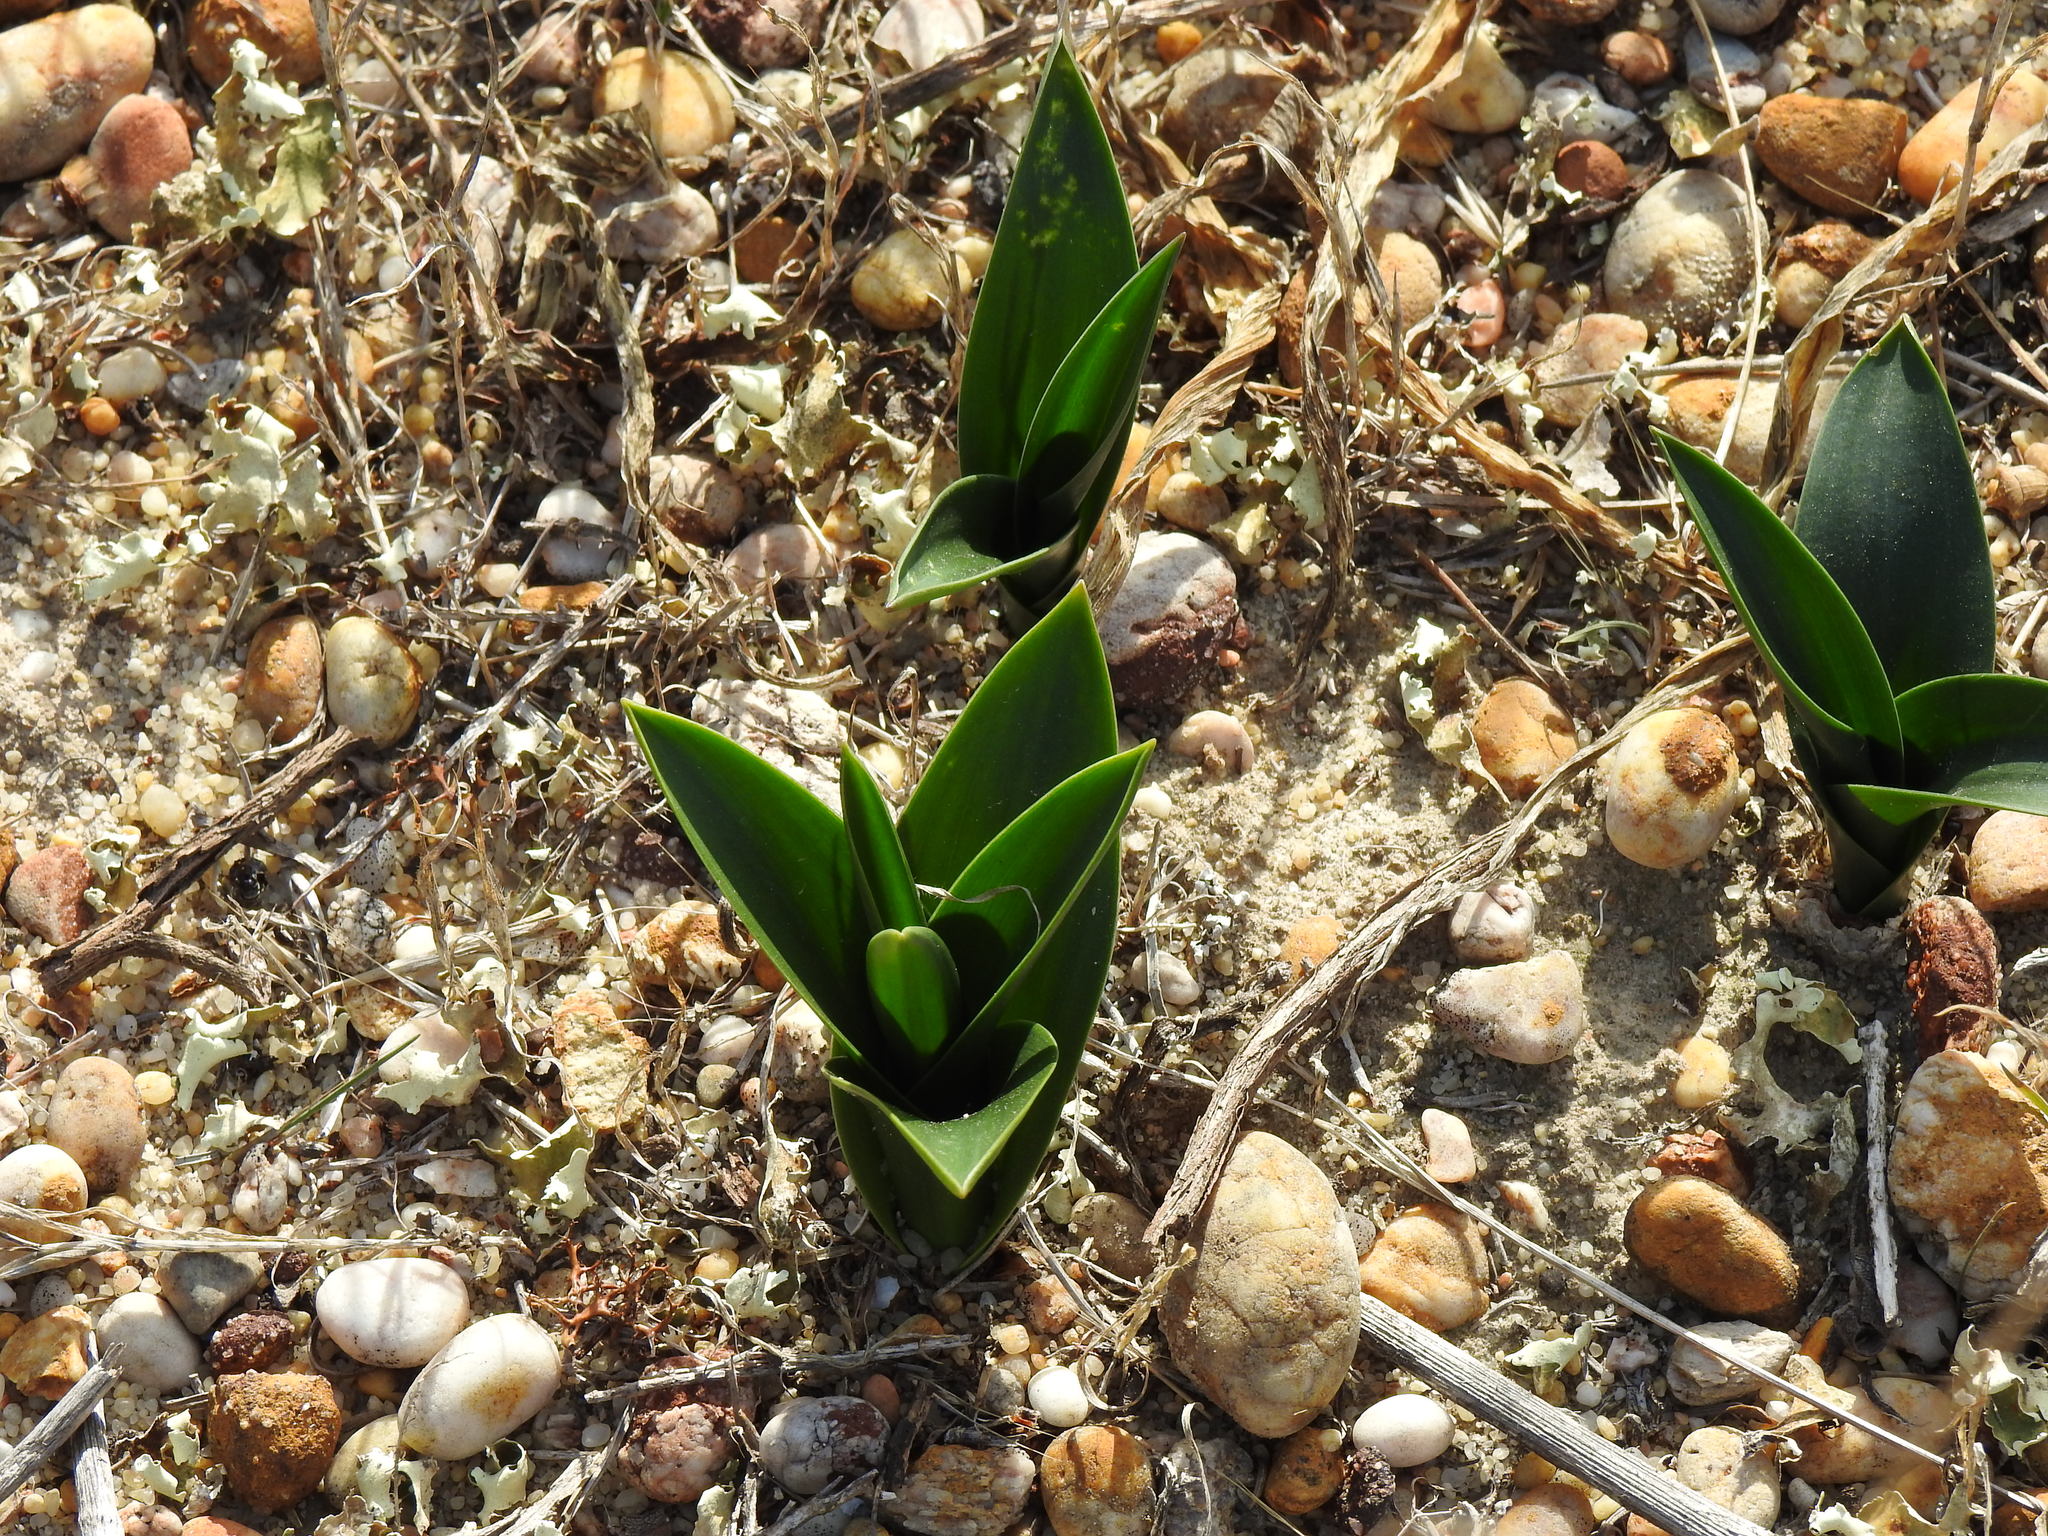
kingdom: Plantae
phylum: Tracheophyta
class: Liliopsida
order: Asparagales
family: Asparagaceae
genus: Drimia
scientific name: Drimia maritima
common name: Maritime squill
